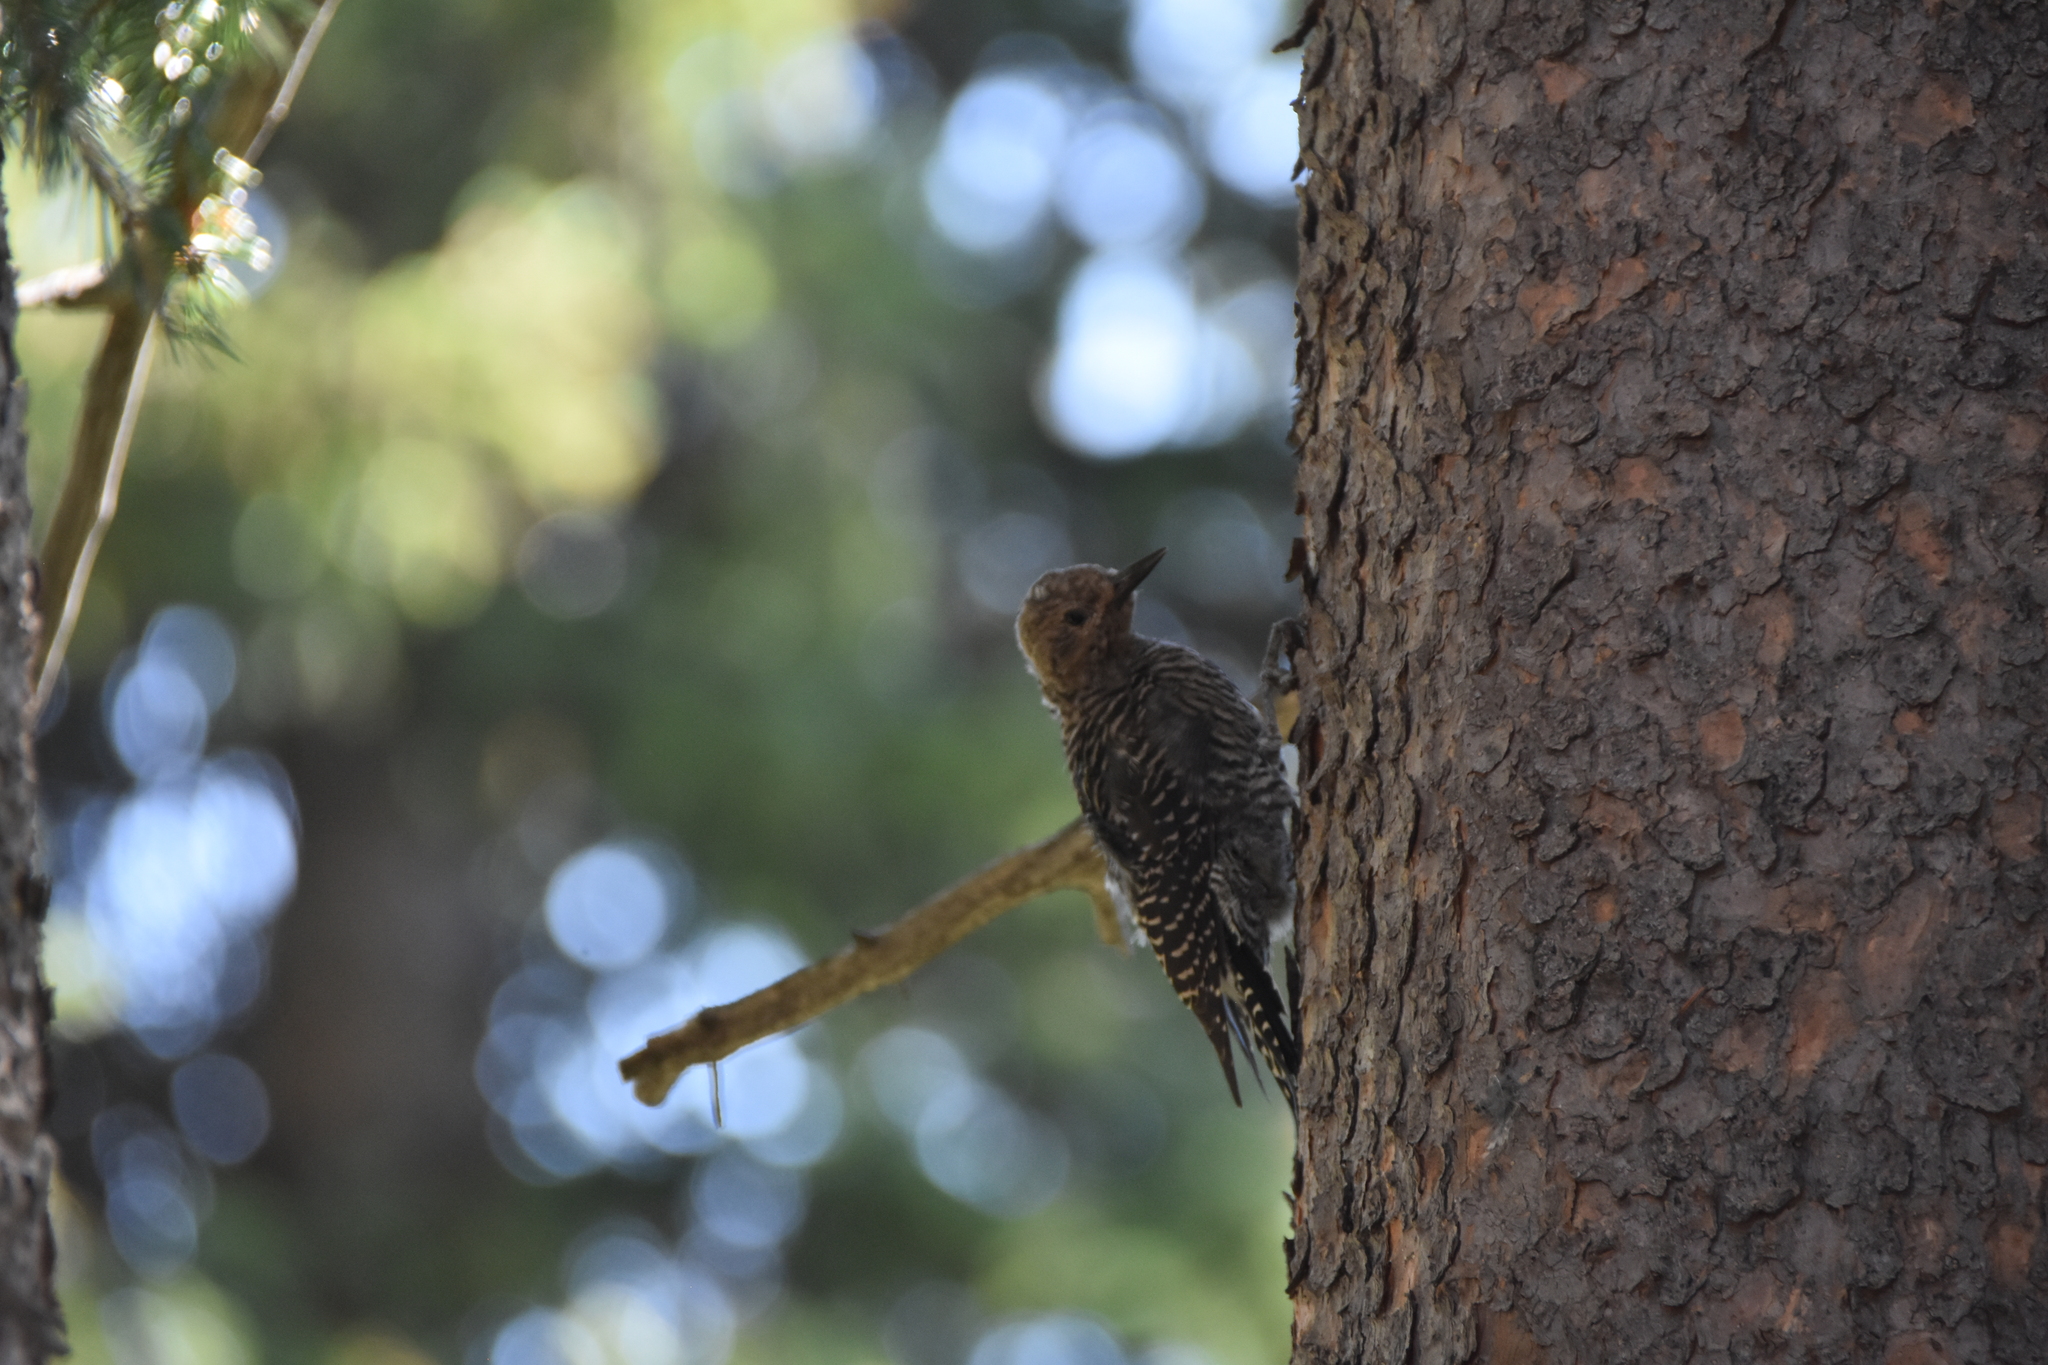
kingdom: Animalia
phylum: Chordata
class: Aves
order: Piciformes
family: Picidae
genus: Sphyrapicus
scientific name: Sphyrapicus thyroideus
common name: Williamson's sapsucker
